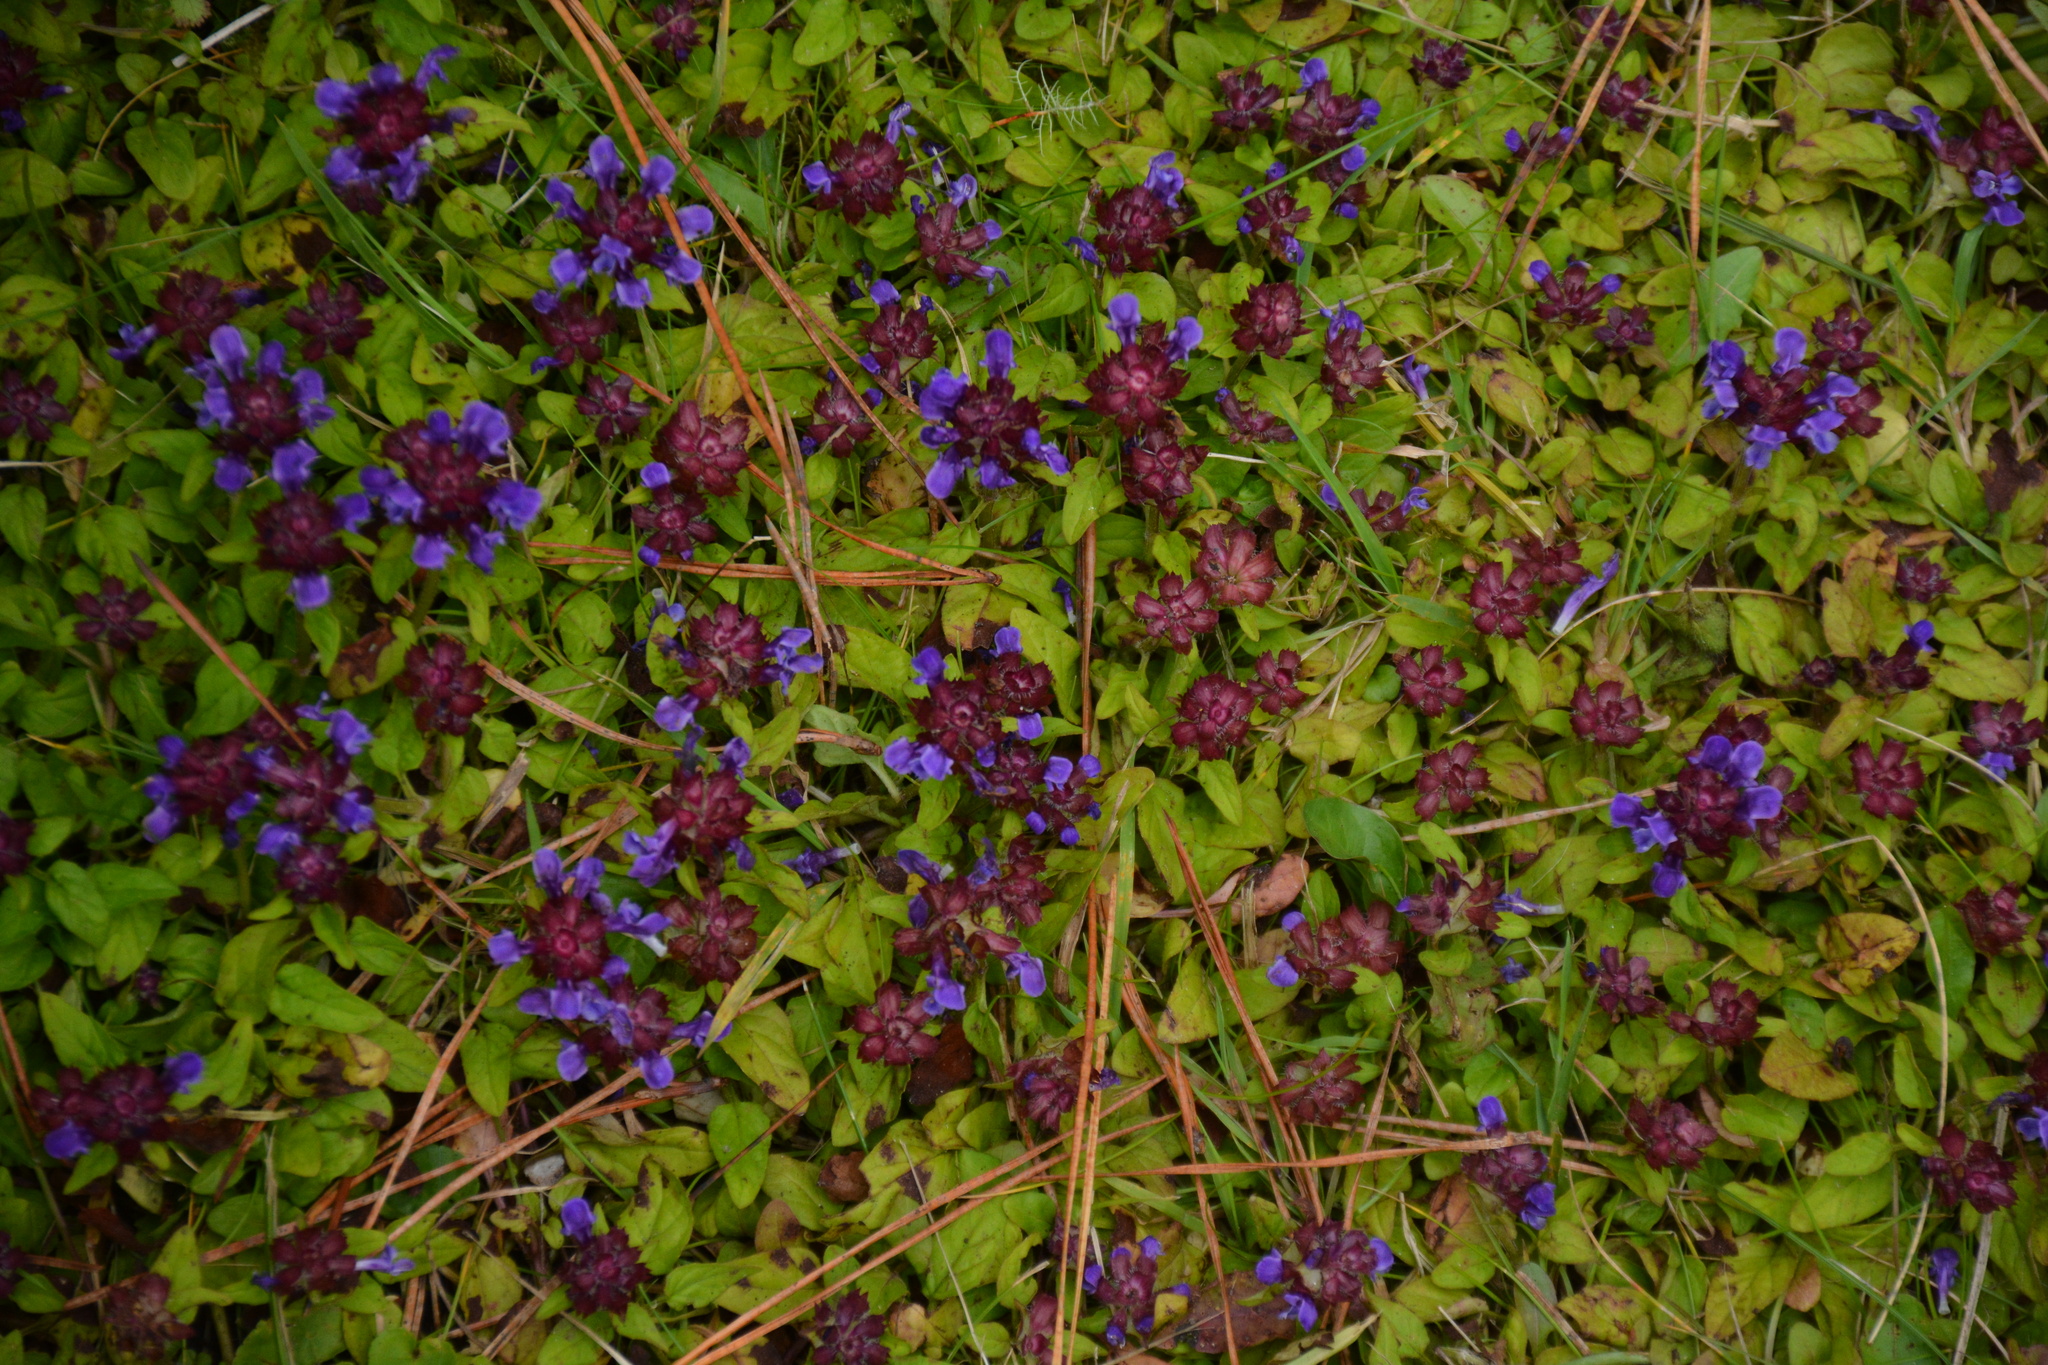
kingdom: Plantae
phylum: Tracheophyta
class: Magnoliopsida
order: Lamiales
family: Lamiaceae
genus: Prunella
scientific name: Prunella vulgaris
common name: Heal-all
